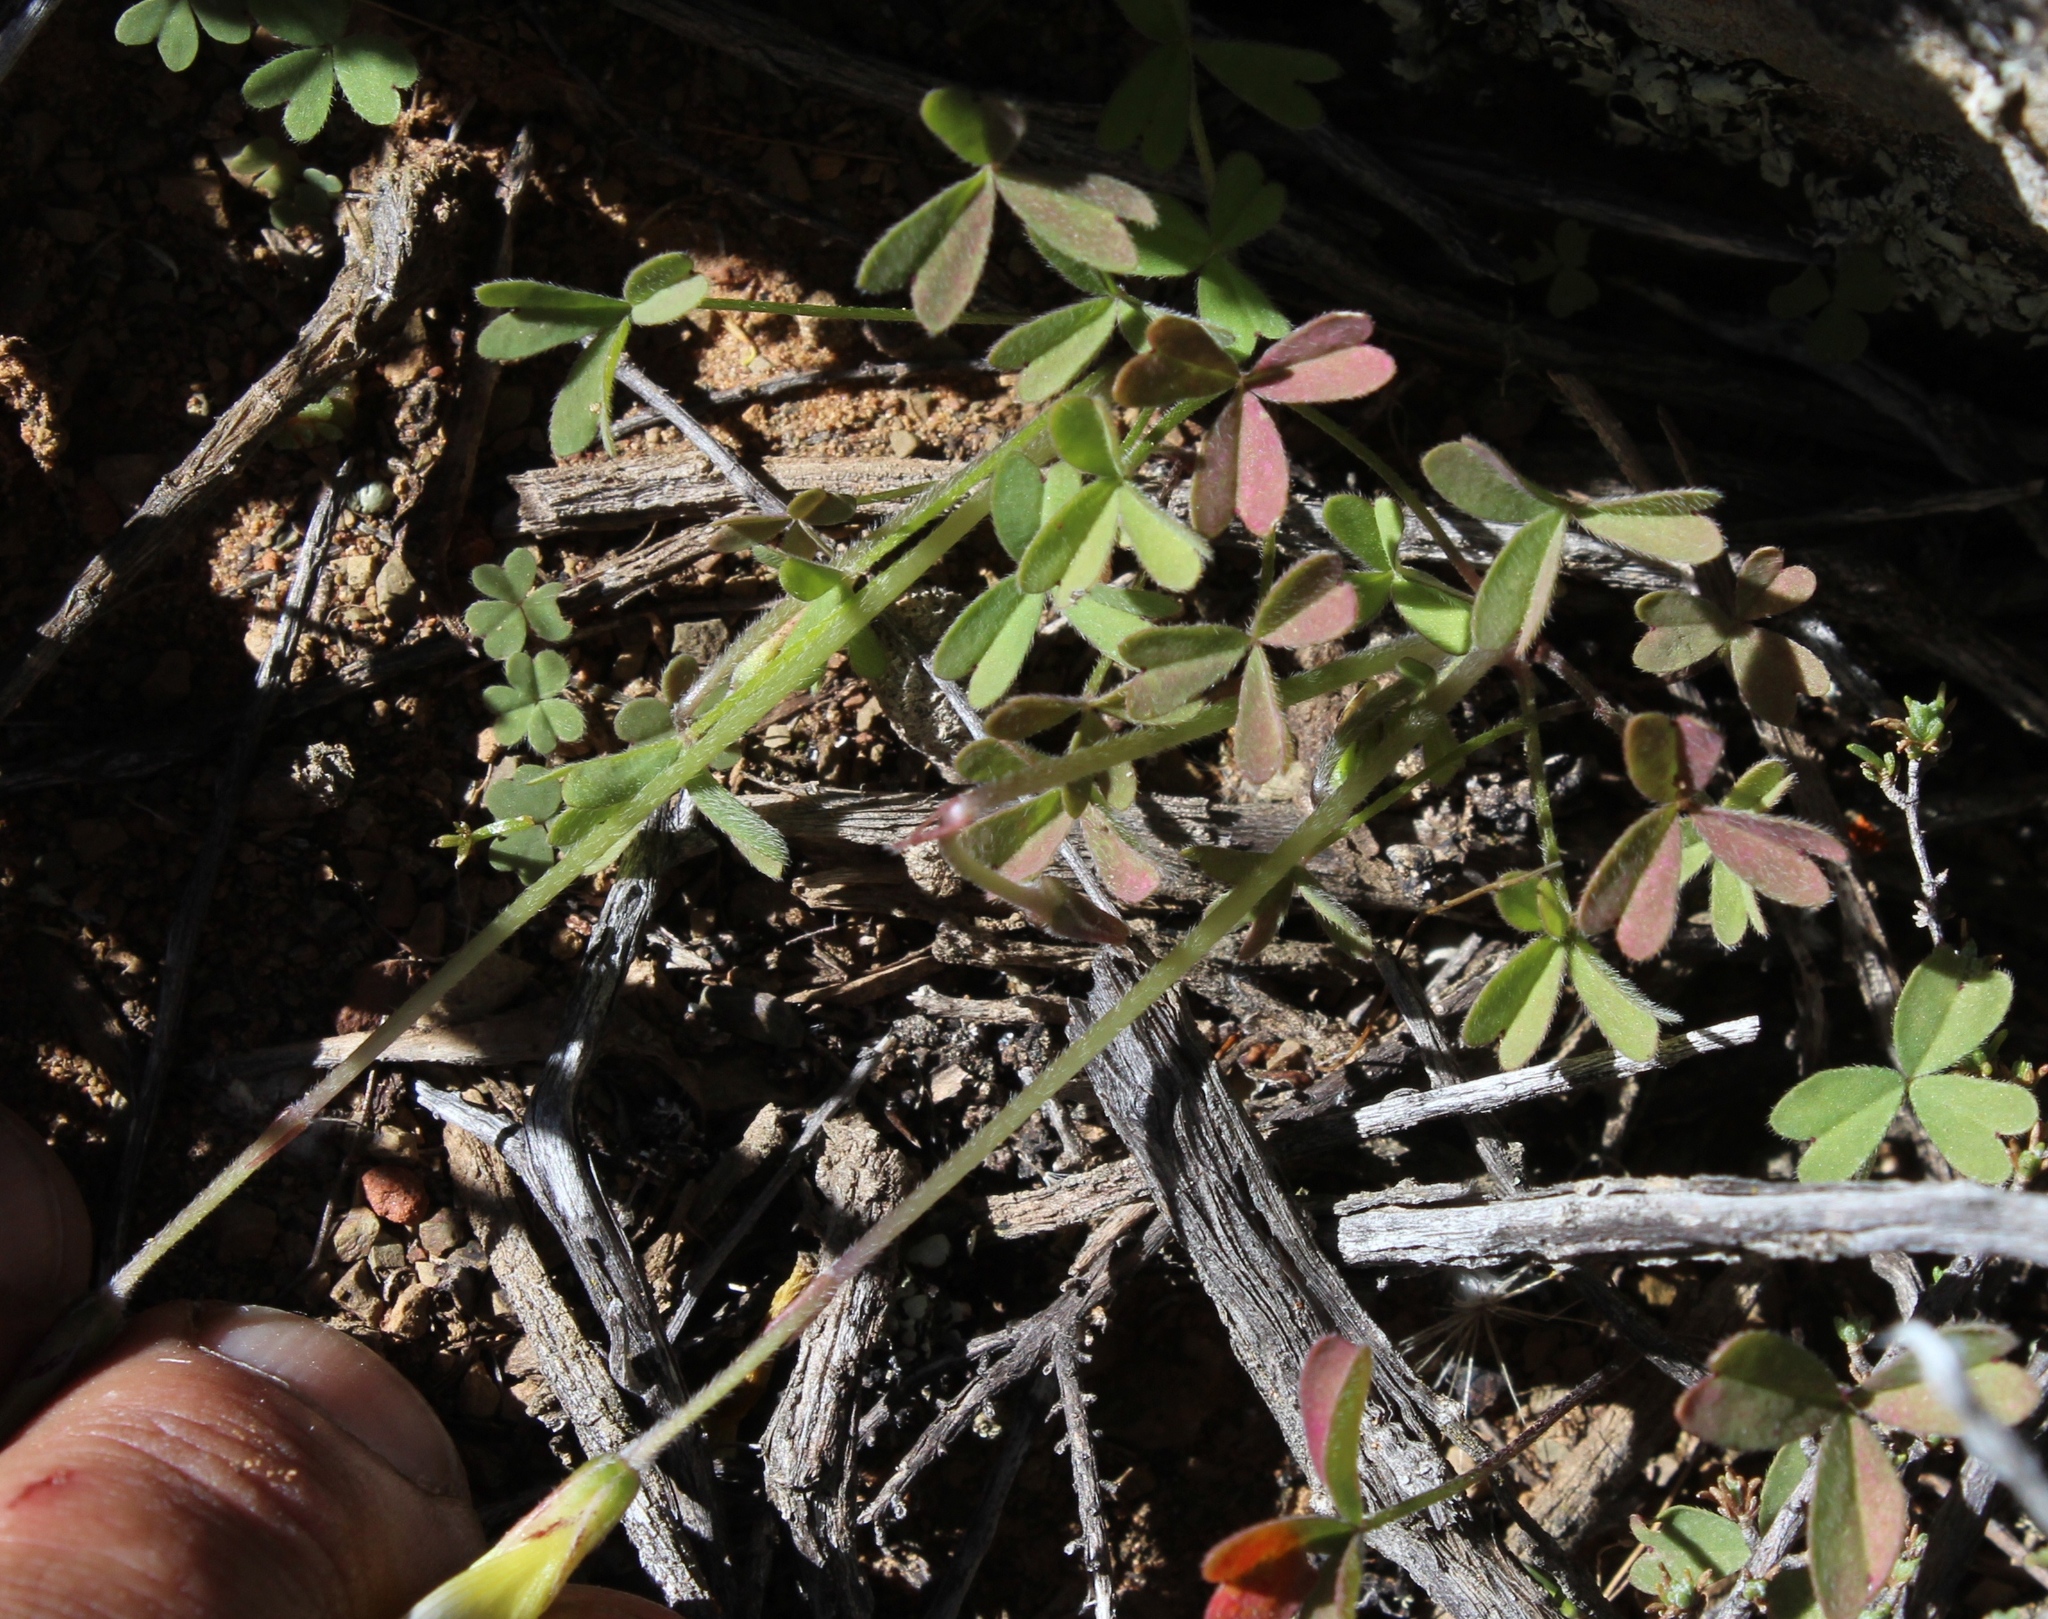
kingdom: Plantae
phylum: Tracheophyta
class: Magnoliopsida
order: Oxalidales
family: Oxalidaceae
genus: Oxalis
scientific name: Oxalis obtusa
